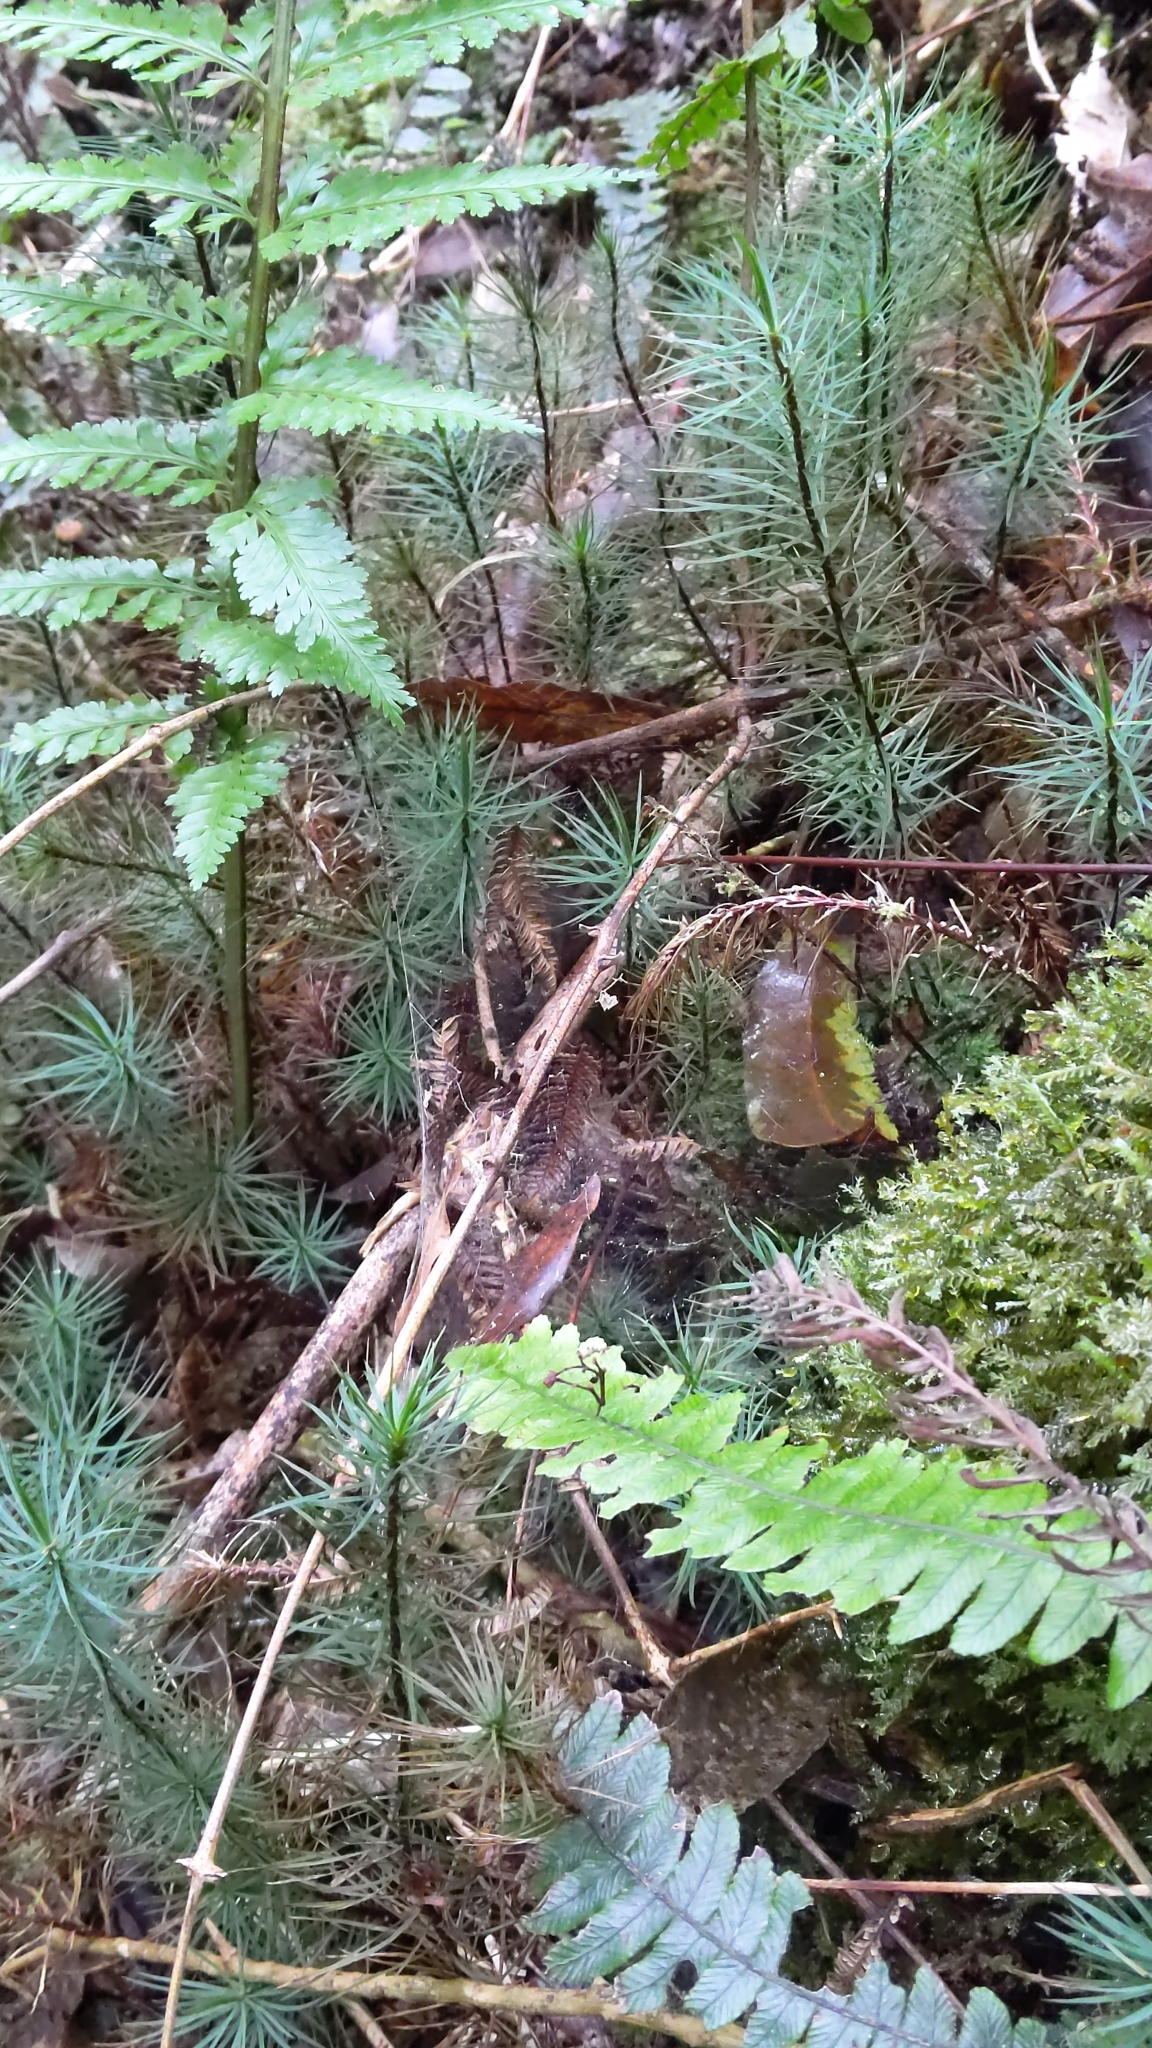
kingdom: Plantae
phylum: Bryophyta
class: Polytrichopsida
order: Polytrichales
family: Polytrichaceae
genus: Dawsonia
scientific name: Dawsonia superba
